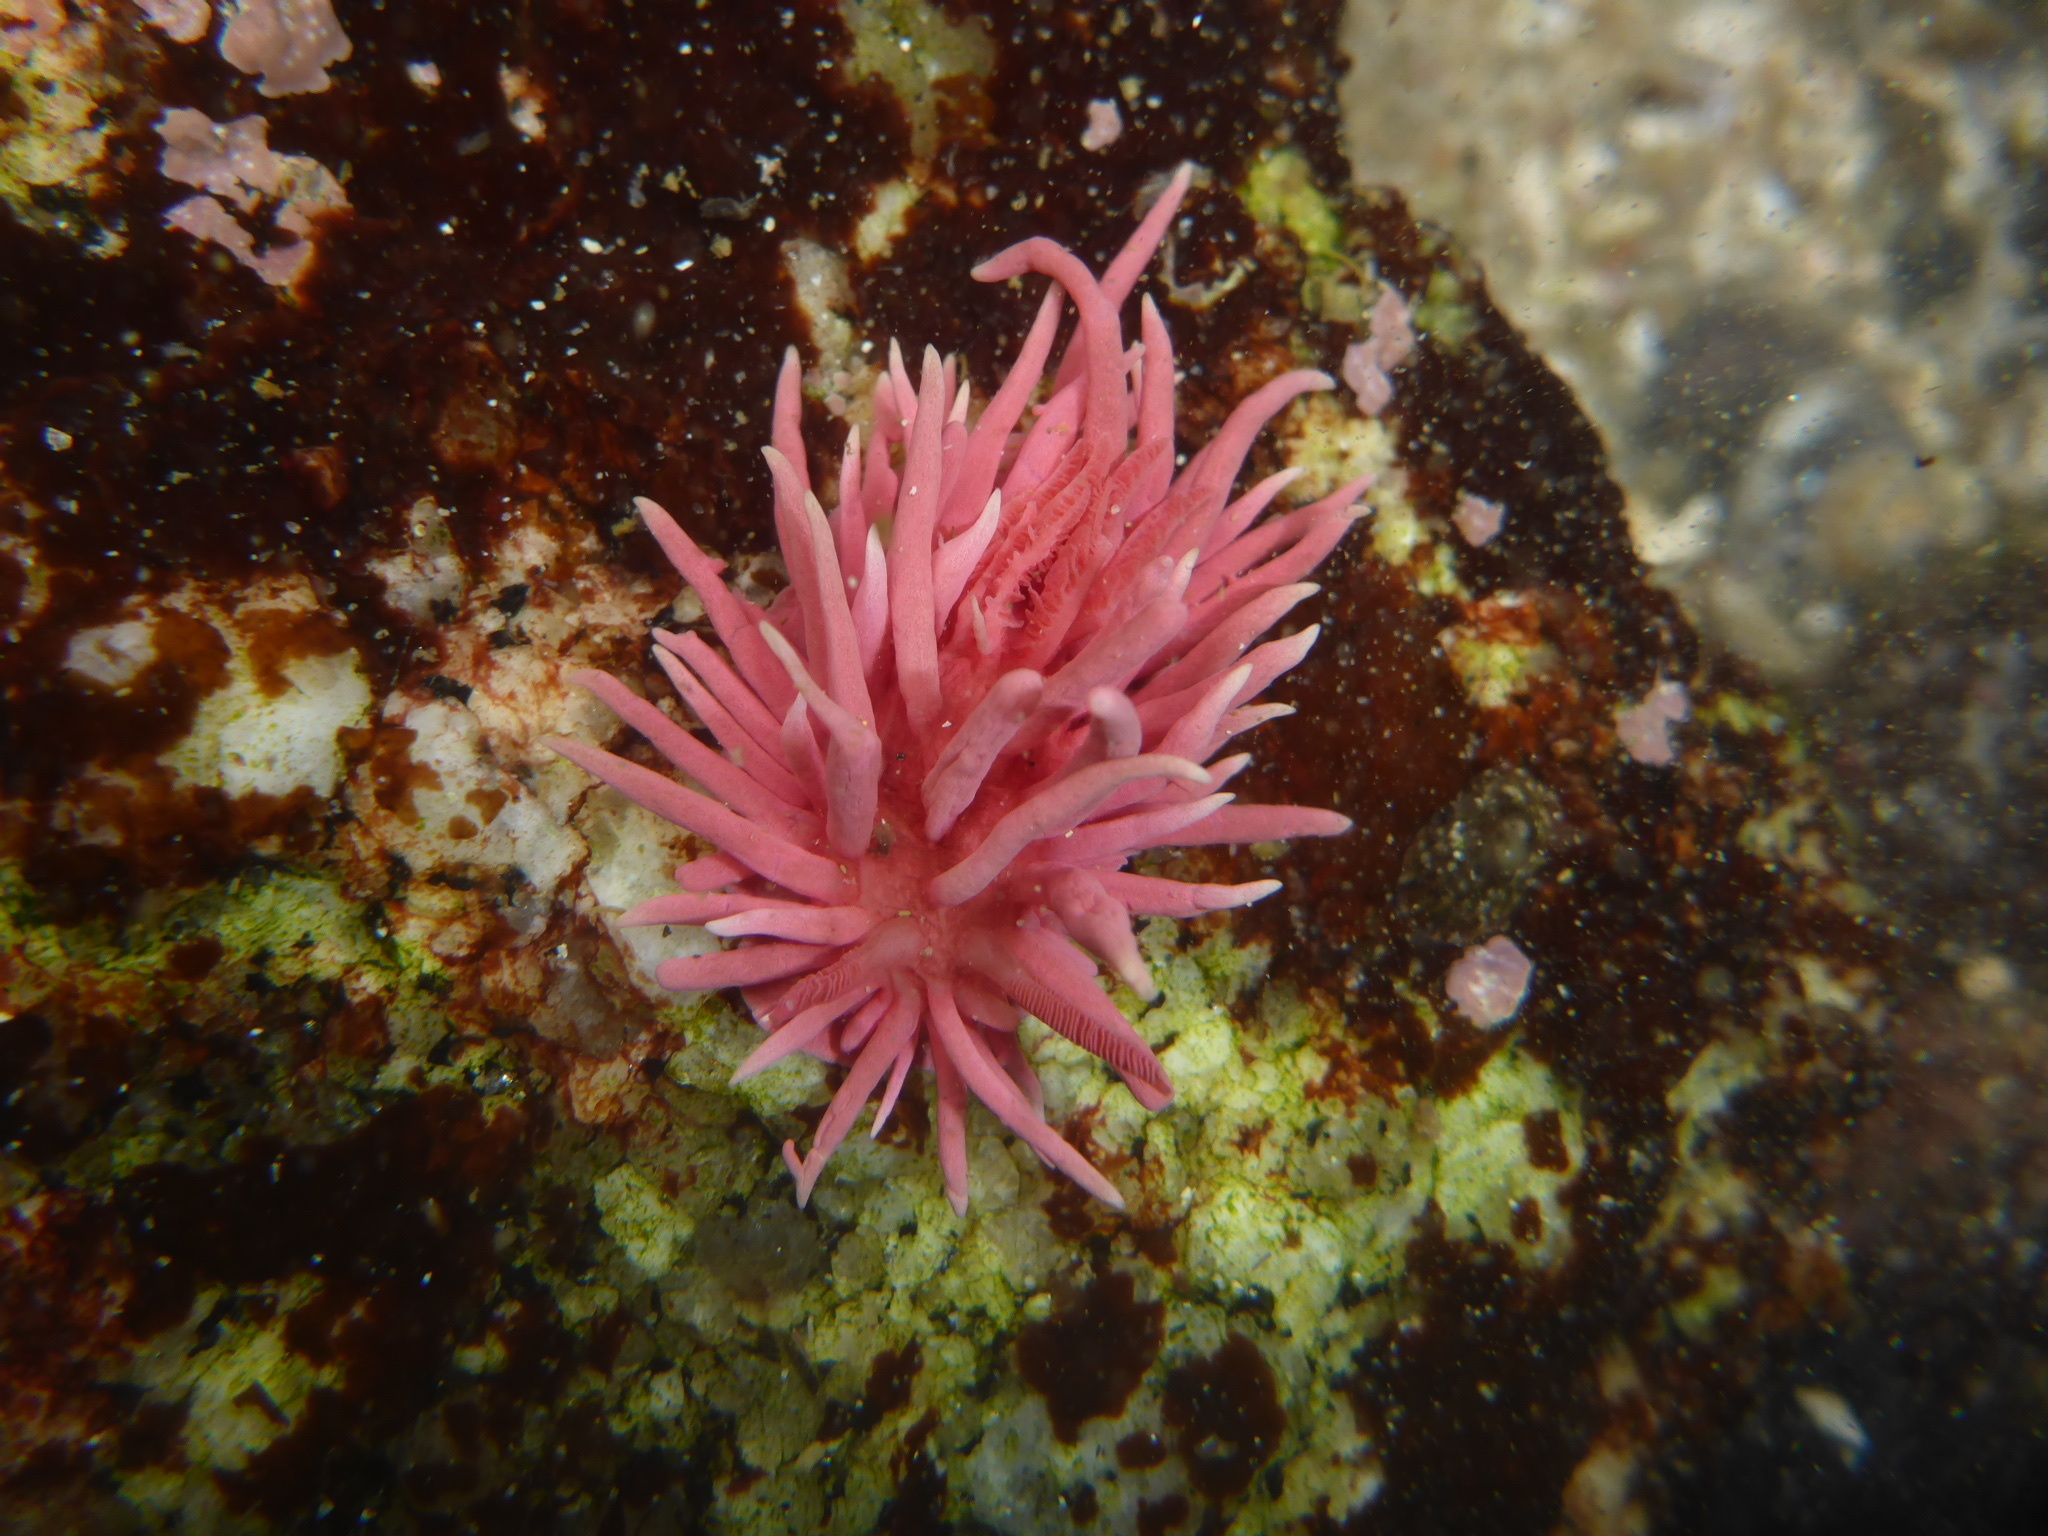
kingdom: Animalia
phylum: Mollusca
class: Gastropoda
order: Nudibranchia
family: Goniodorididae
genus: Okenia
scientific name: Okenia
